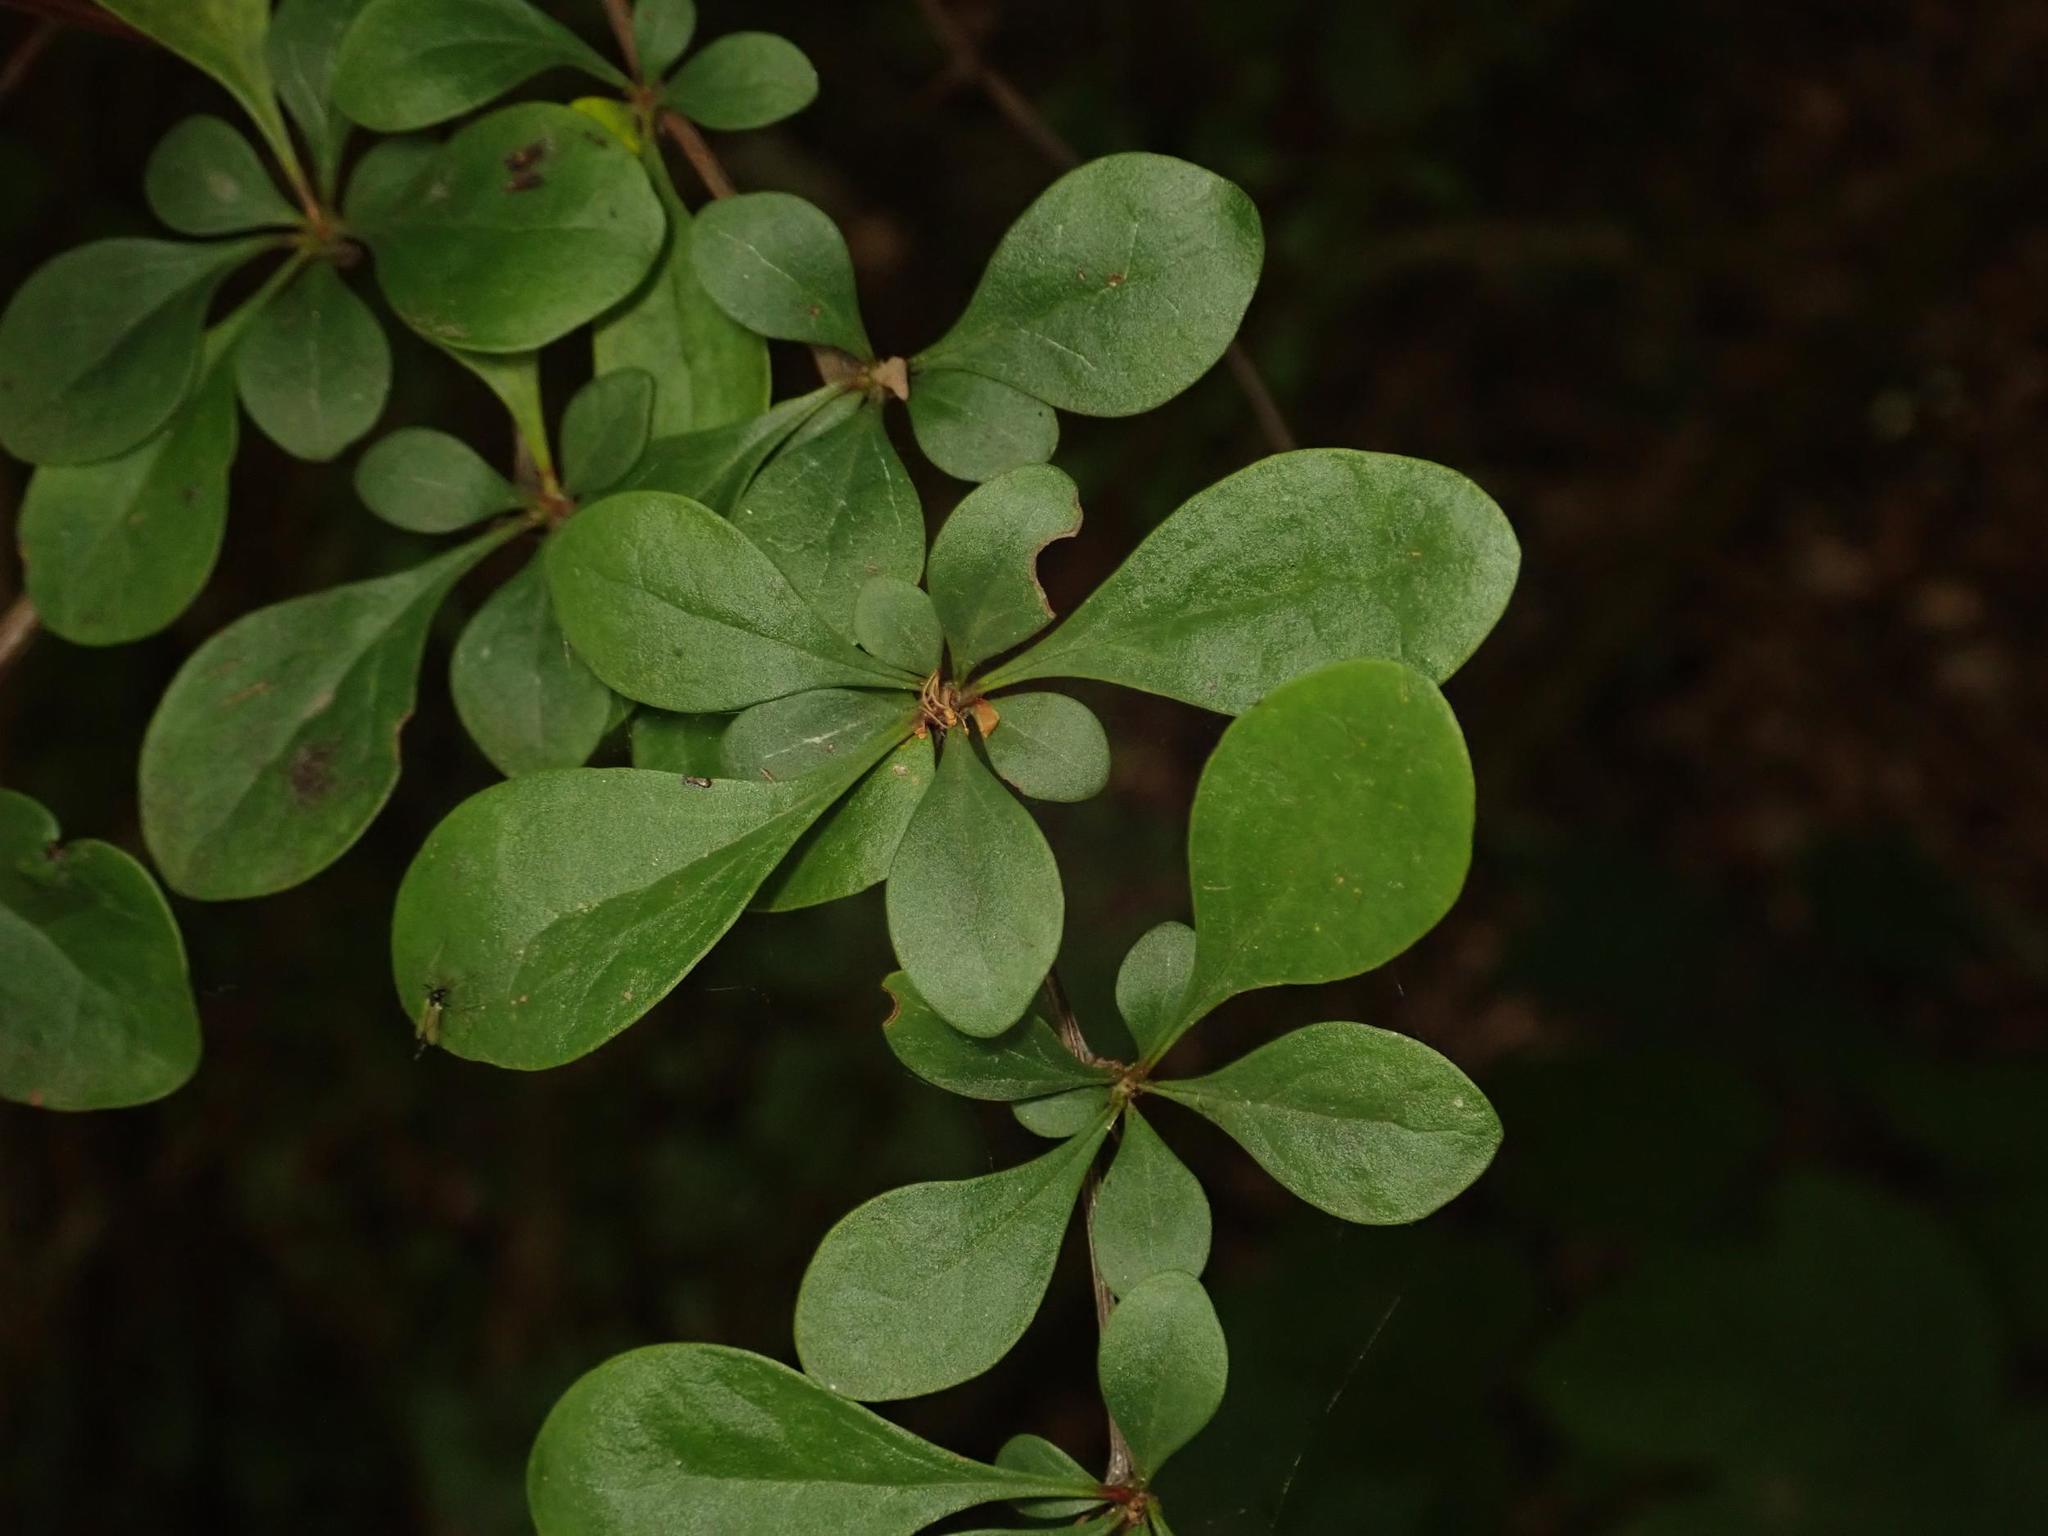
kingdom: Plantae
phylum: Tracheophyta
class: Magnoliopsida
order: Ranunculales
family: Berberidaceae
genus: Berberis
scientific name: Berberis thunbergii
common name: Japanese barberry
